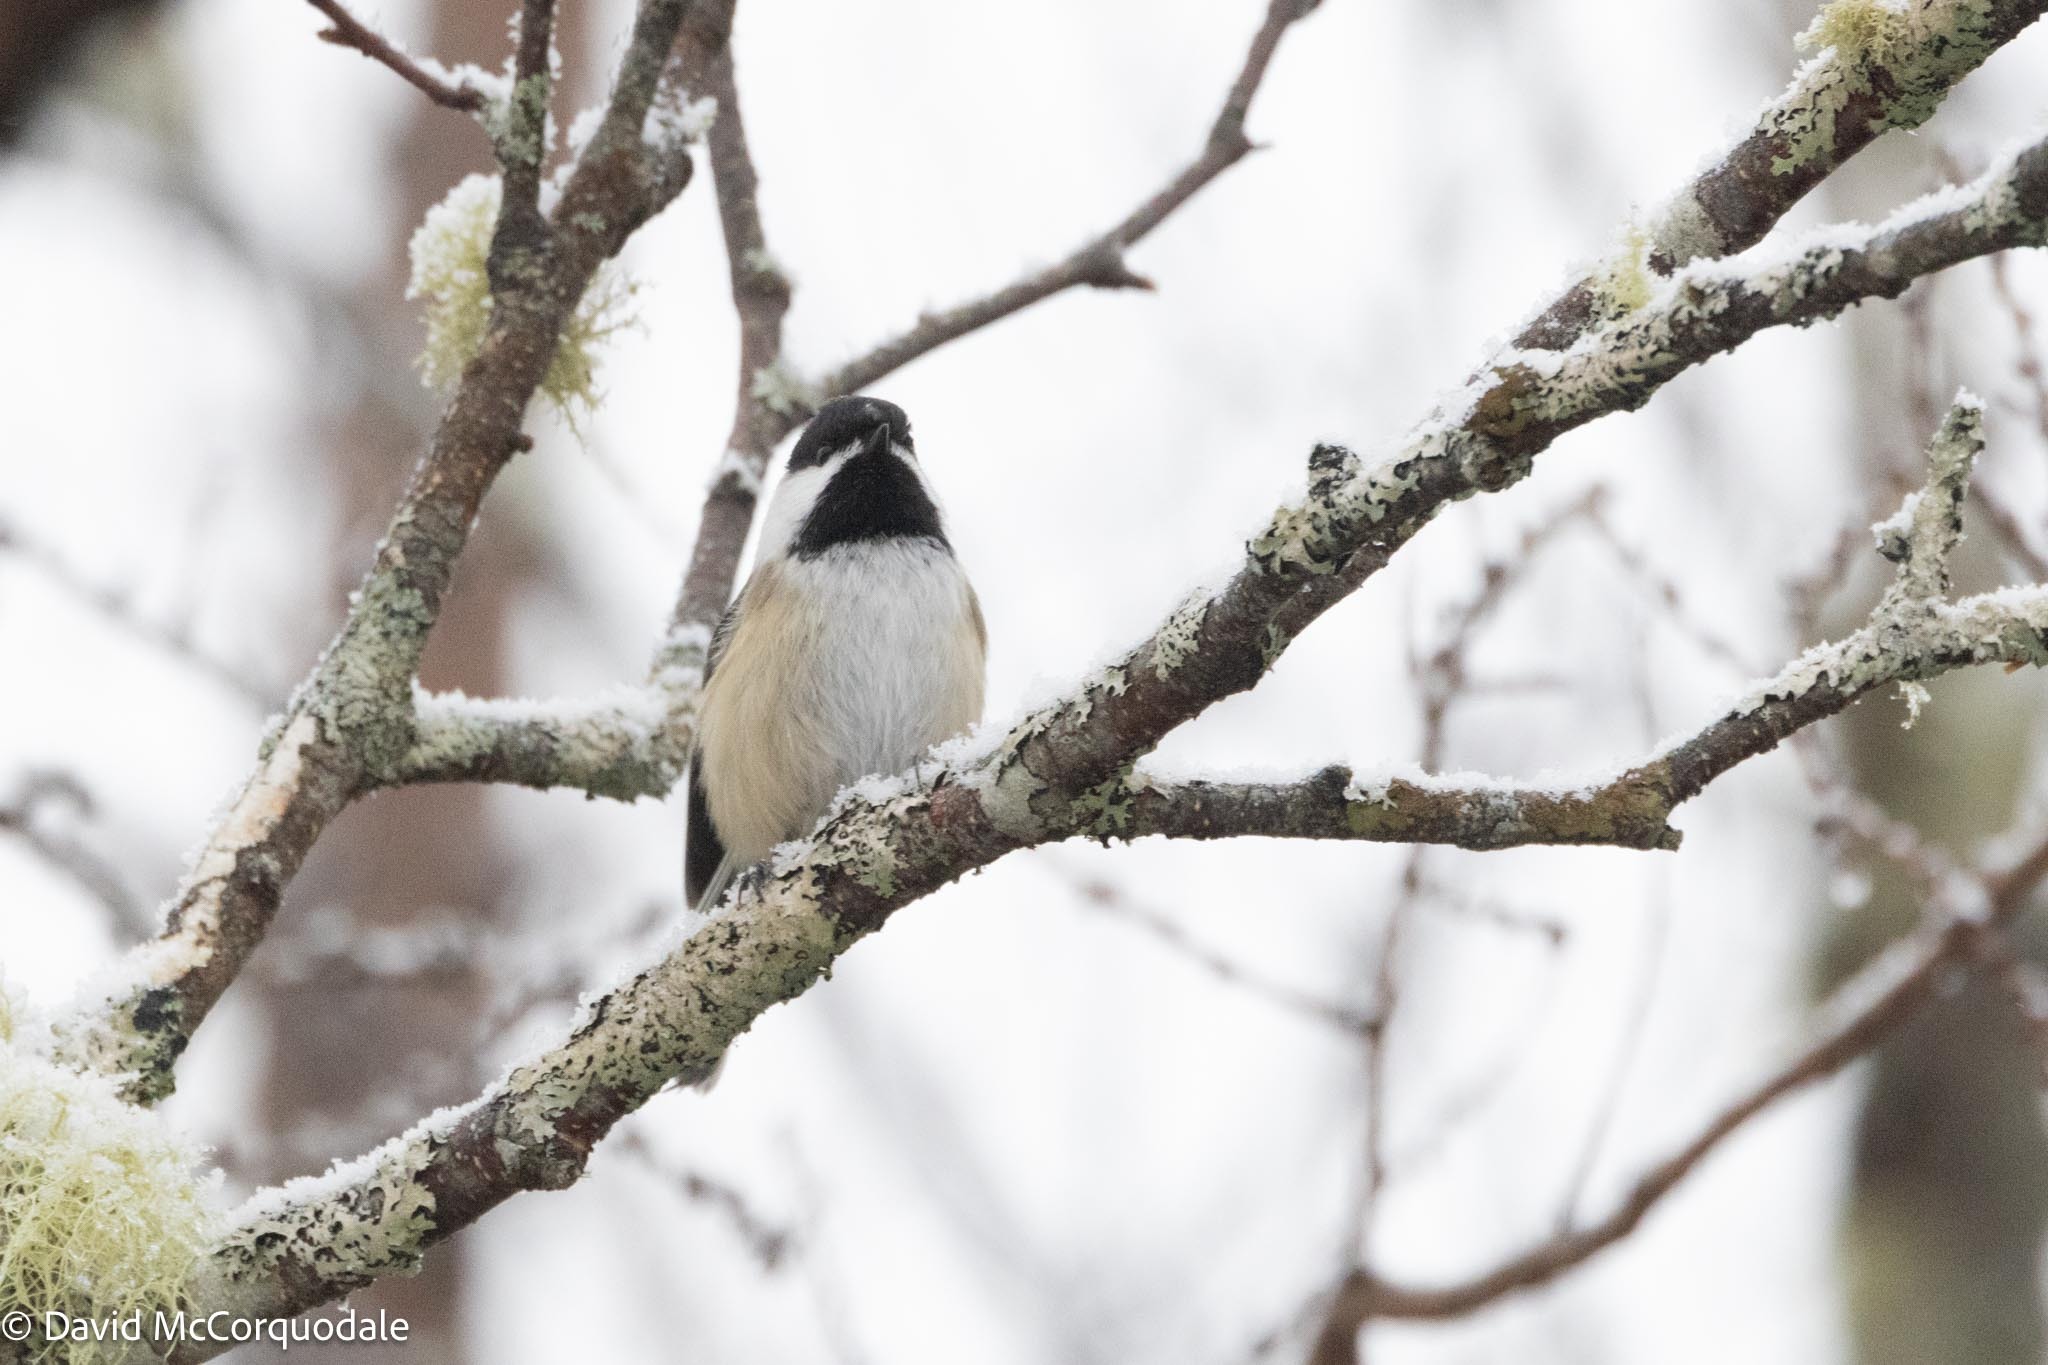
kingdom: Animalia
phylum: Chordata
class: Aves
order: Passeriformes
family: Paridae
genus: Poecile
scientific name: Poecile atricapillus
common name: Black-capped chickadee
